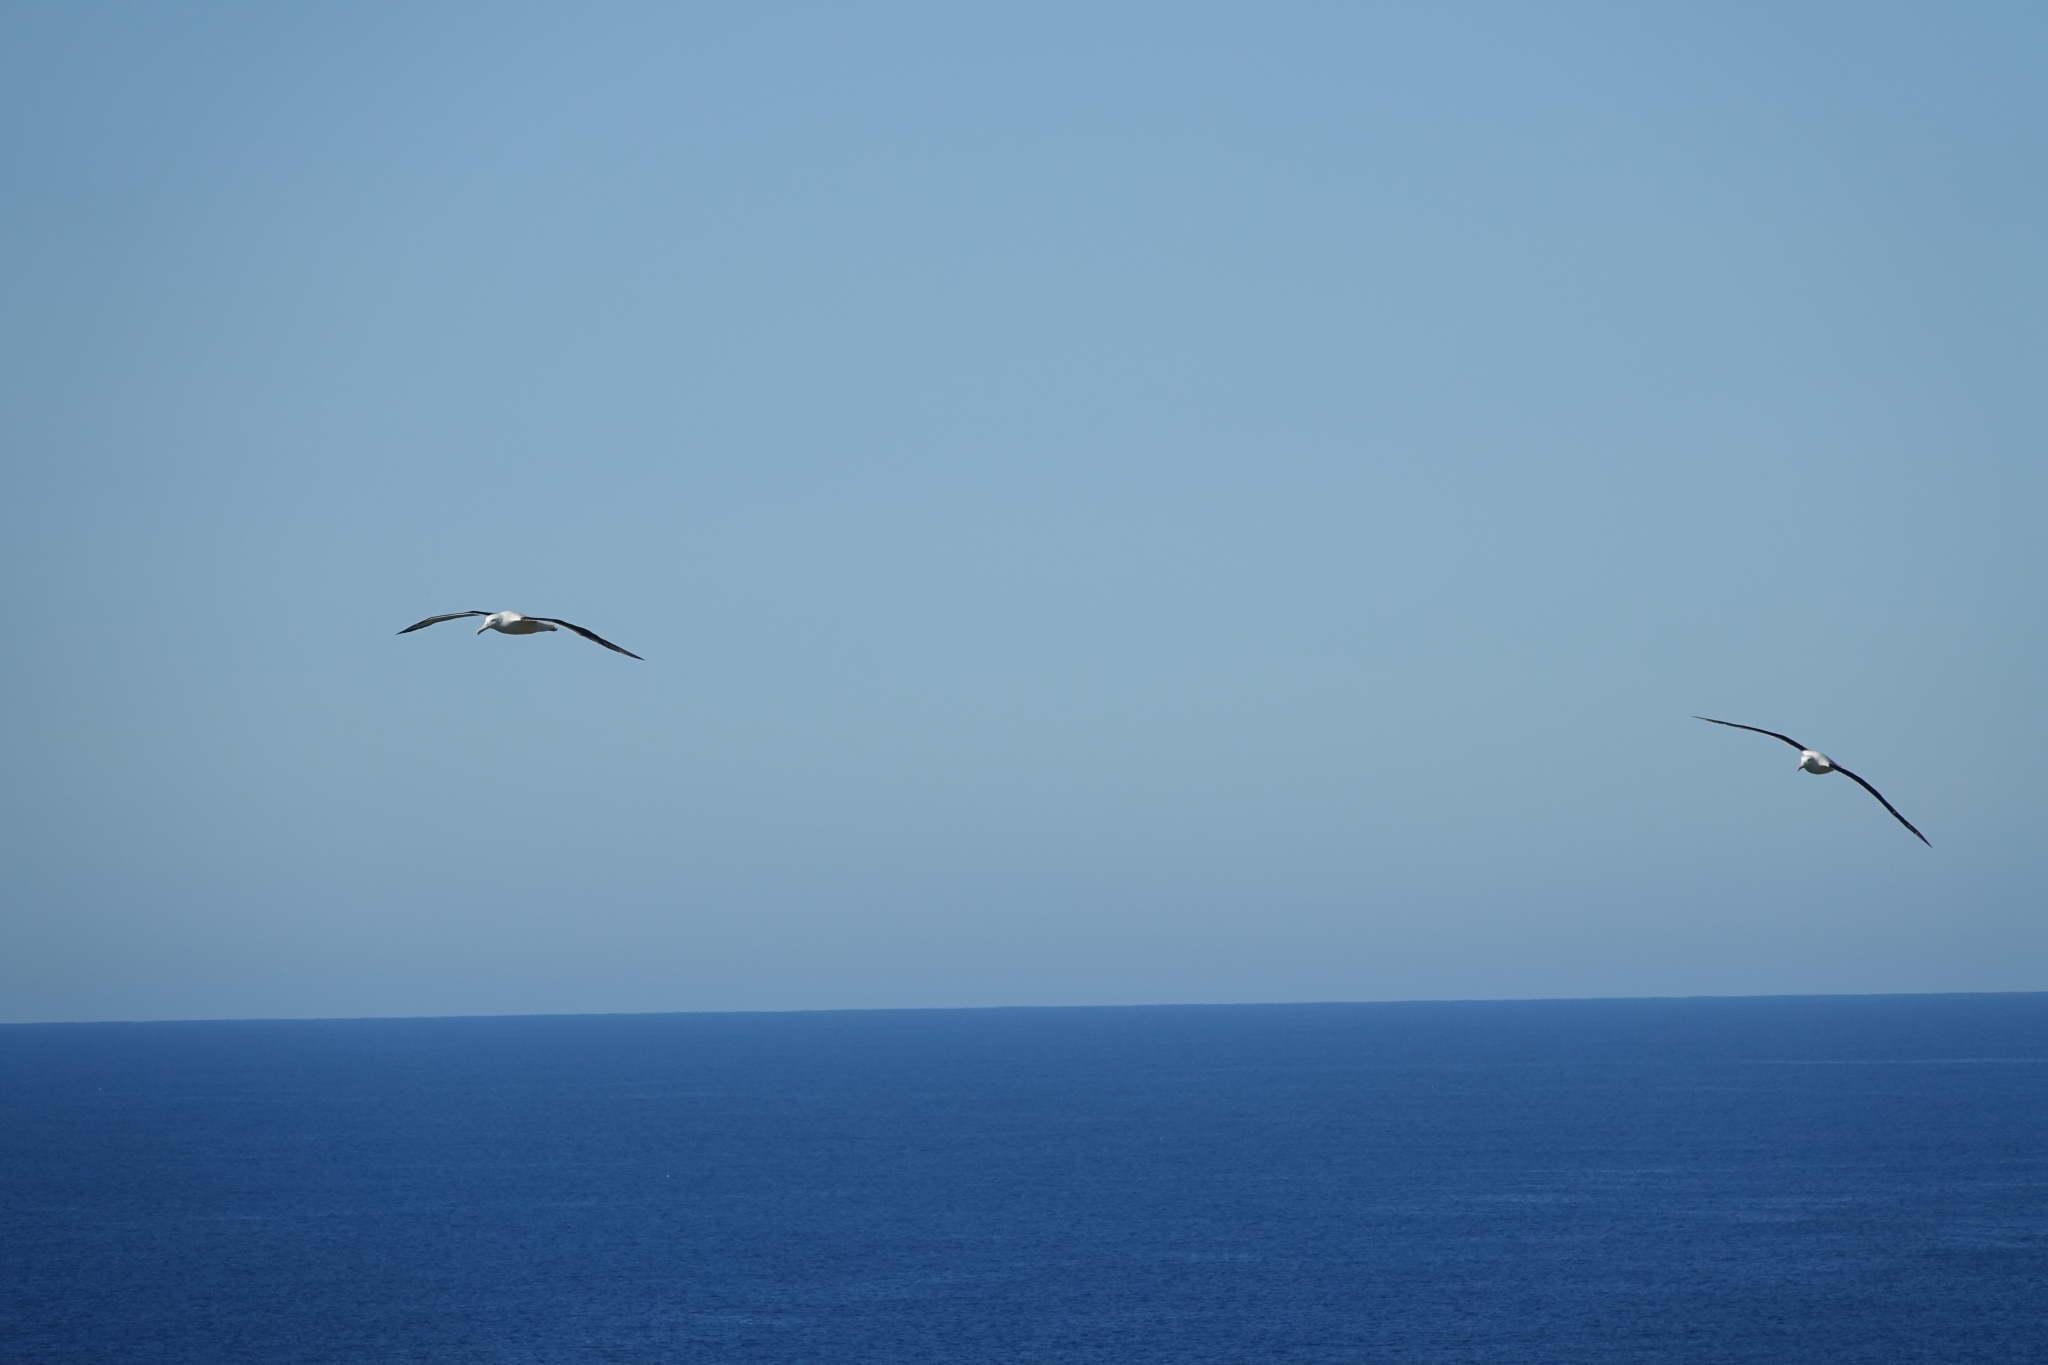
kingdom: Animalia
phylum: Chordata
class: Aves
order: Procellariiformes
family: Diomedeidae
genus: Diomedea
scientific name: Diomedea sanfordi
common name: Northern royal albatross
